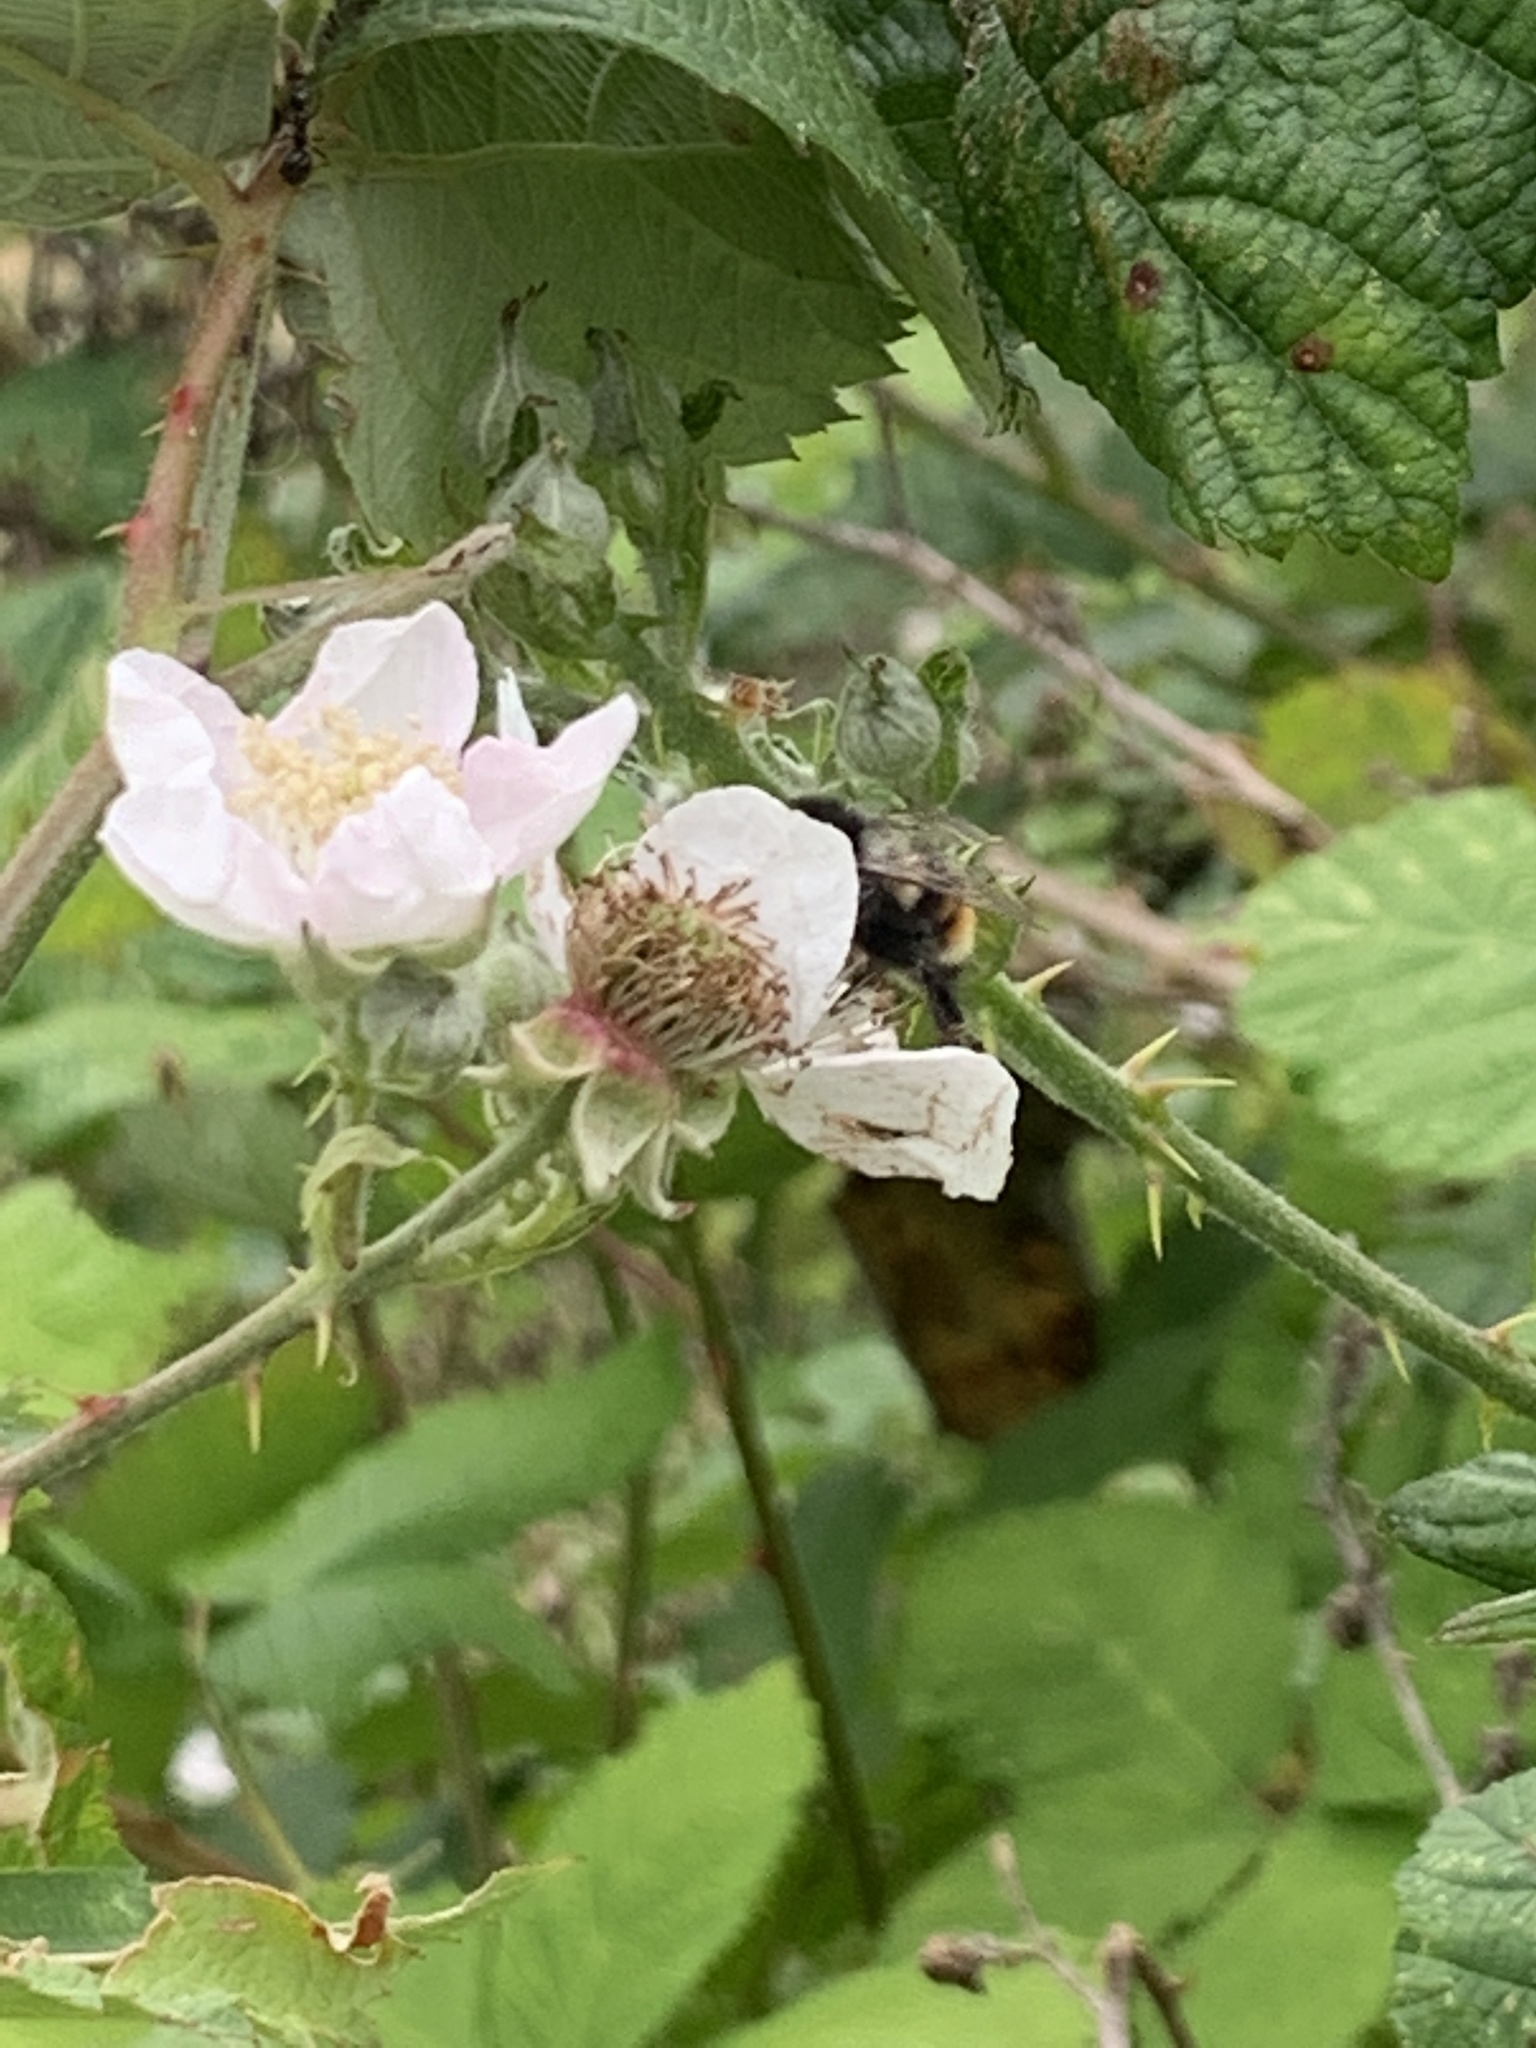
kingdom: Animalia
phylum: Arthropoda
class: Insecta
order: Hymenoptera
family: Apidae
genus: Bombus
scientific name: Bombus vancouverensis
